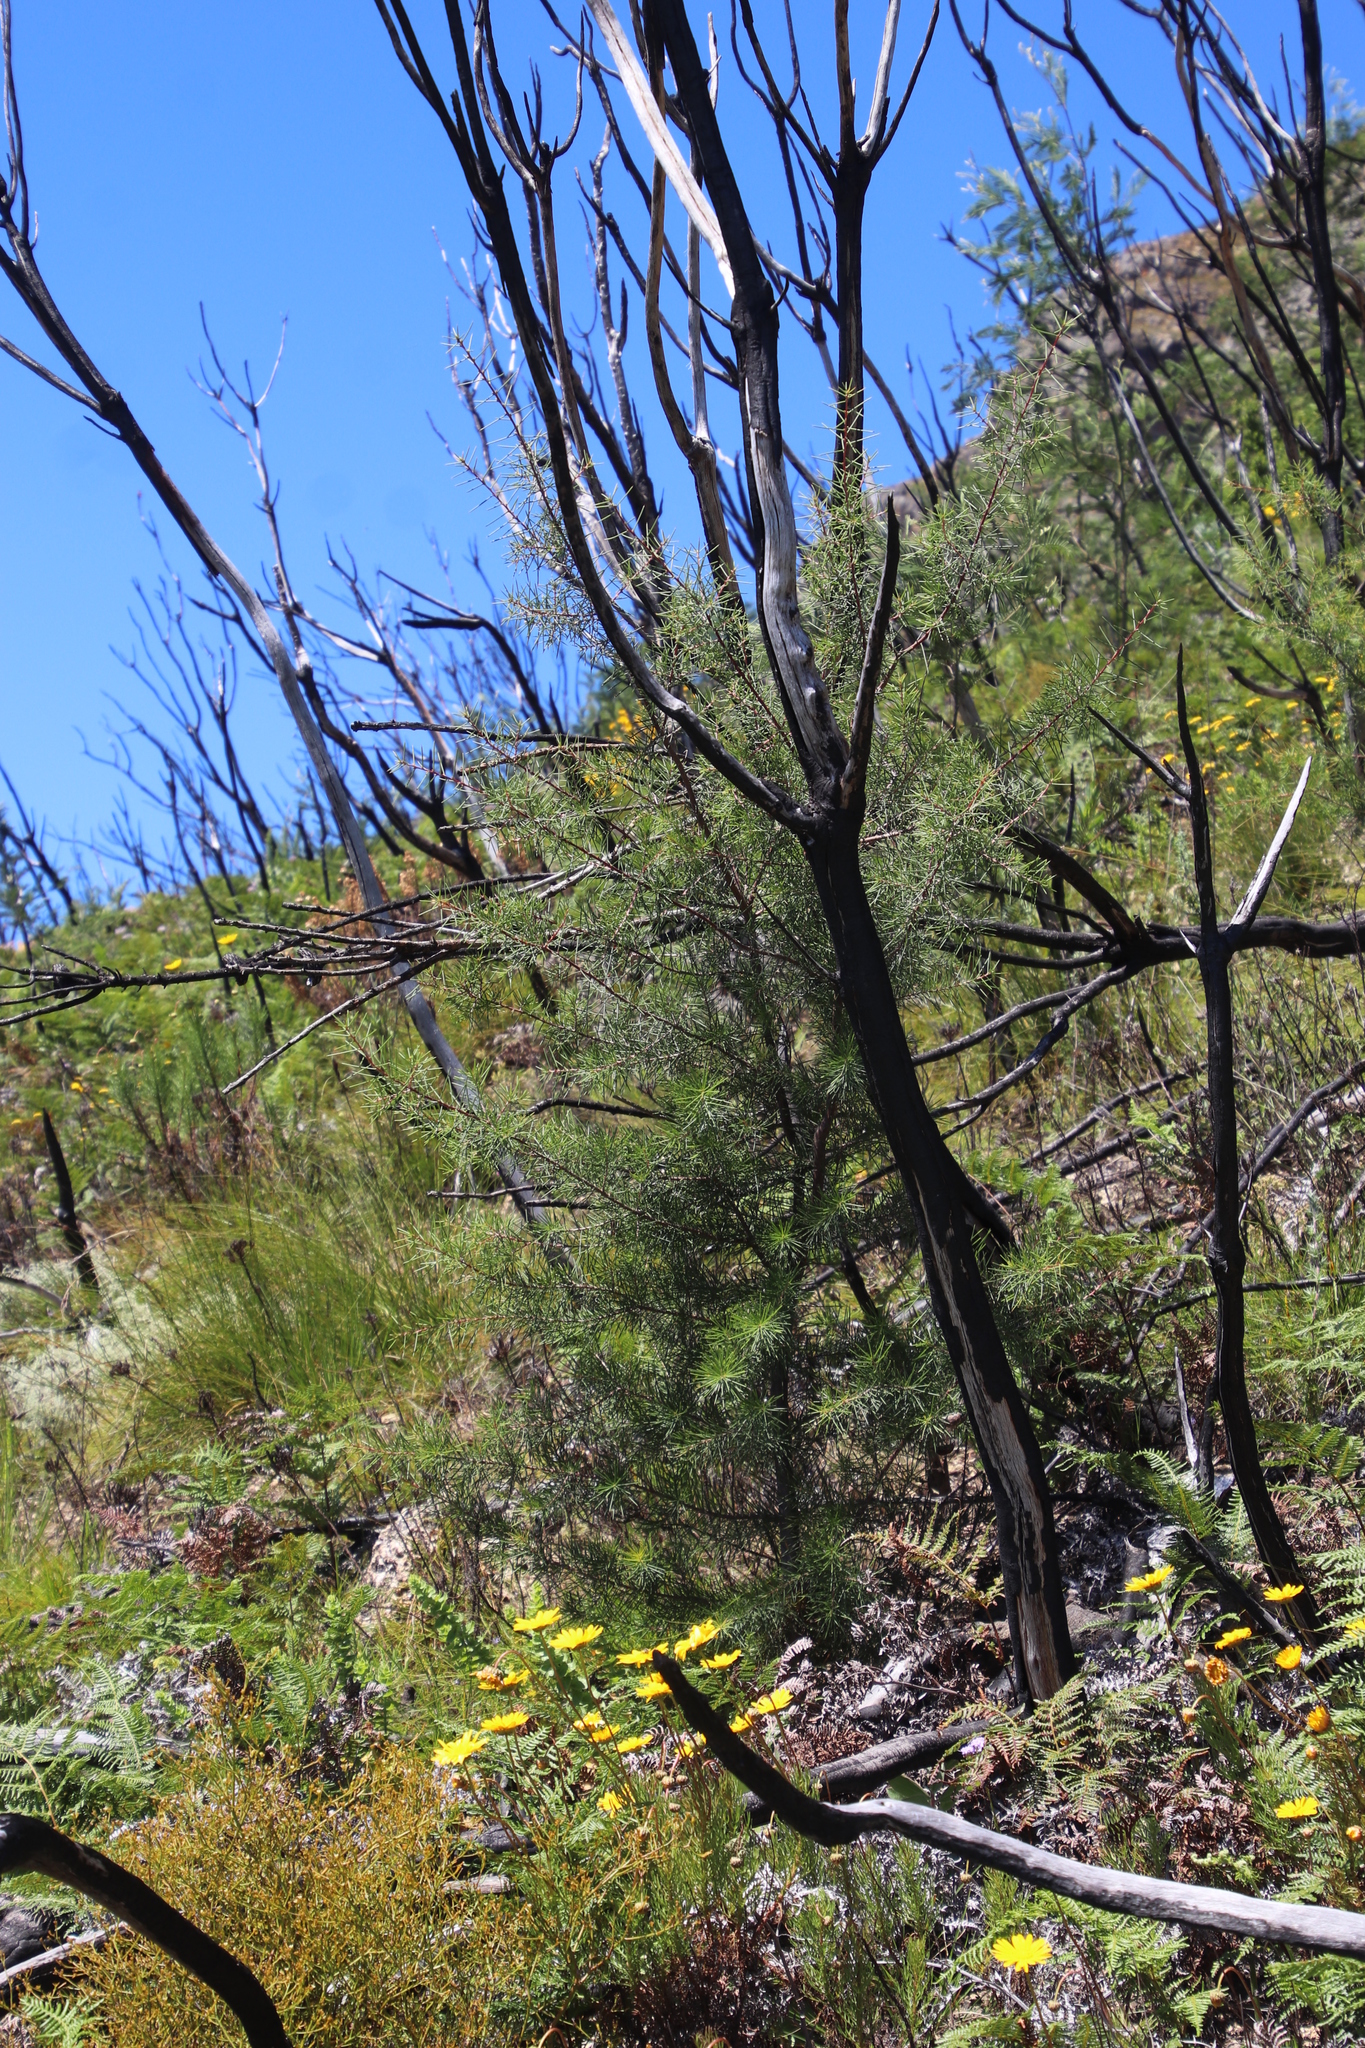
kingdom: Plantae
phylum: Tracheophyta
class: Magnoliopsida
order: Proteales
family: Proteaceae
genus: Hakea
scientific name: Hakea sericea
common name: Needle bush
